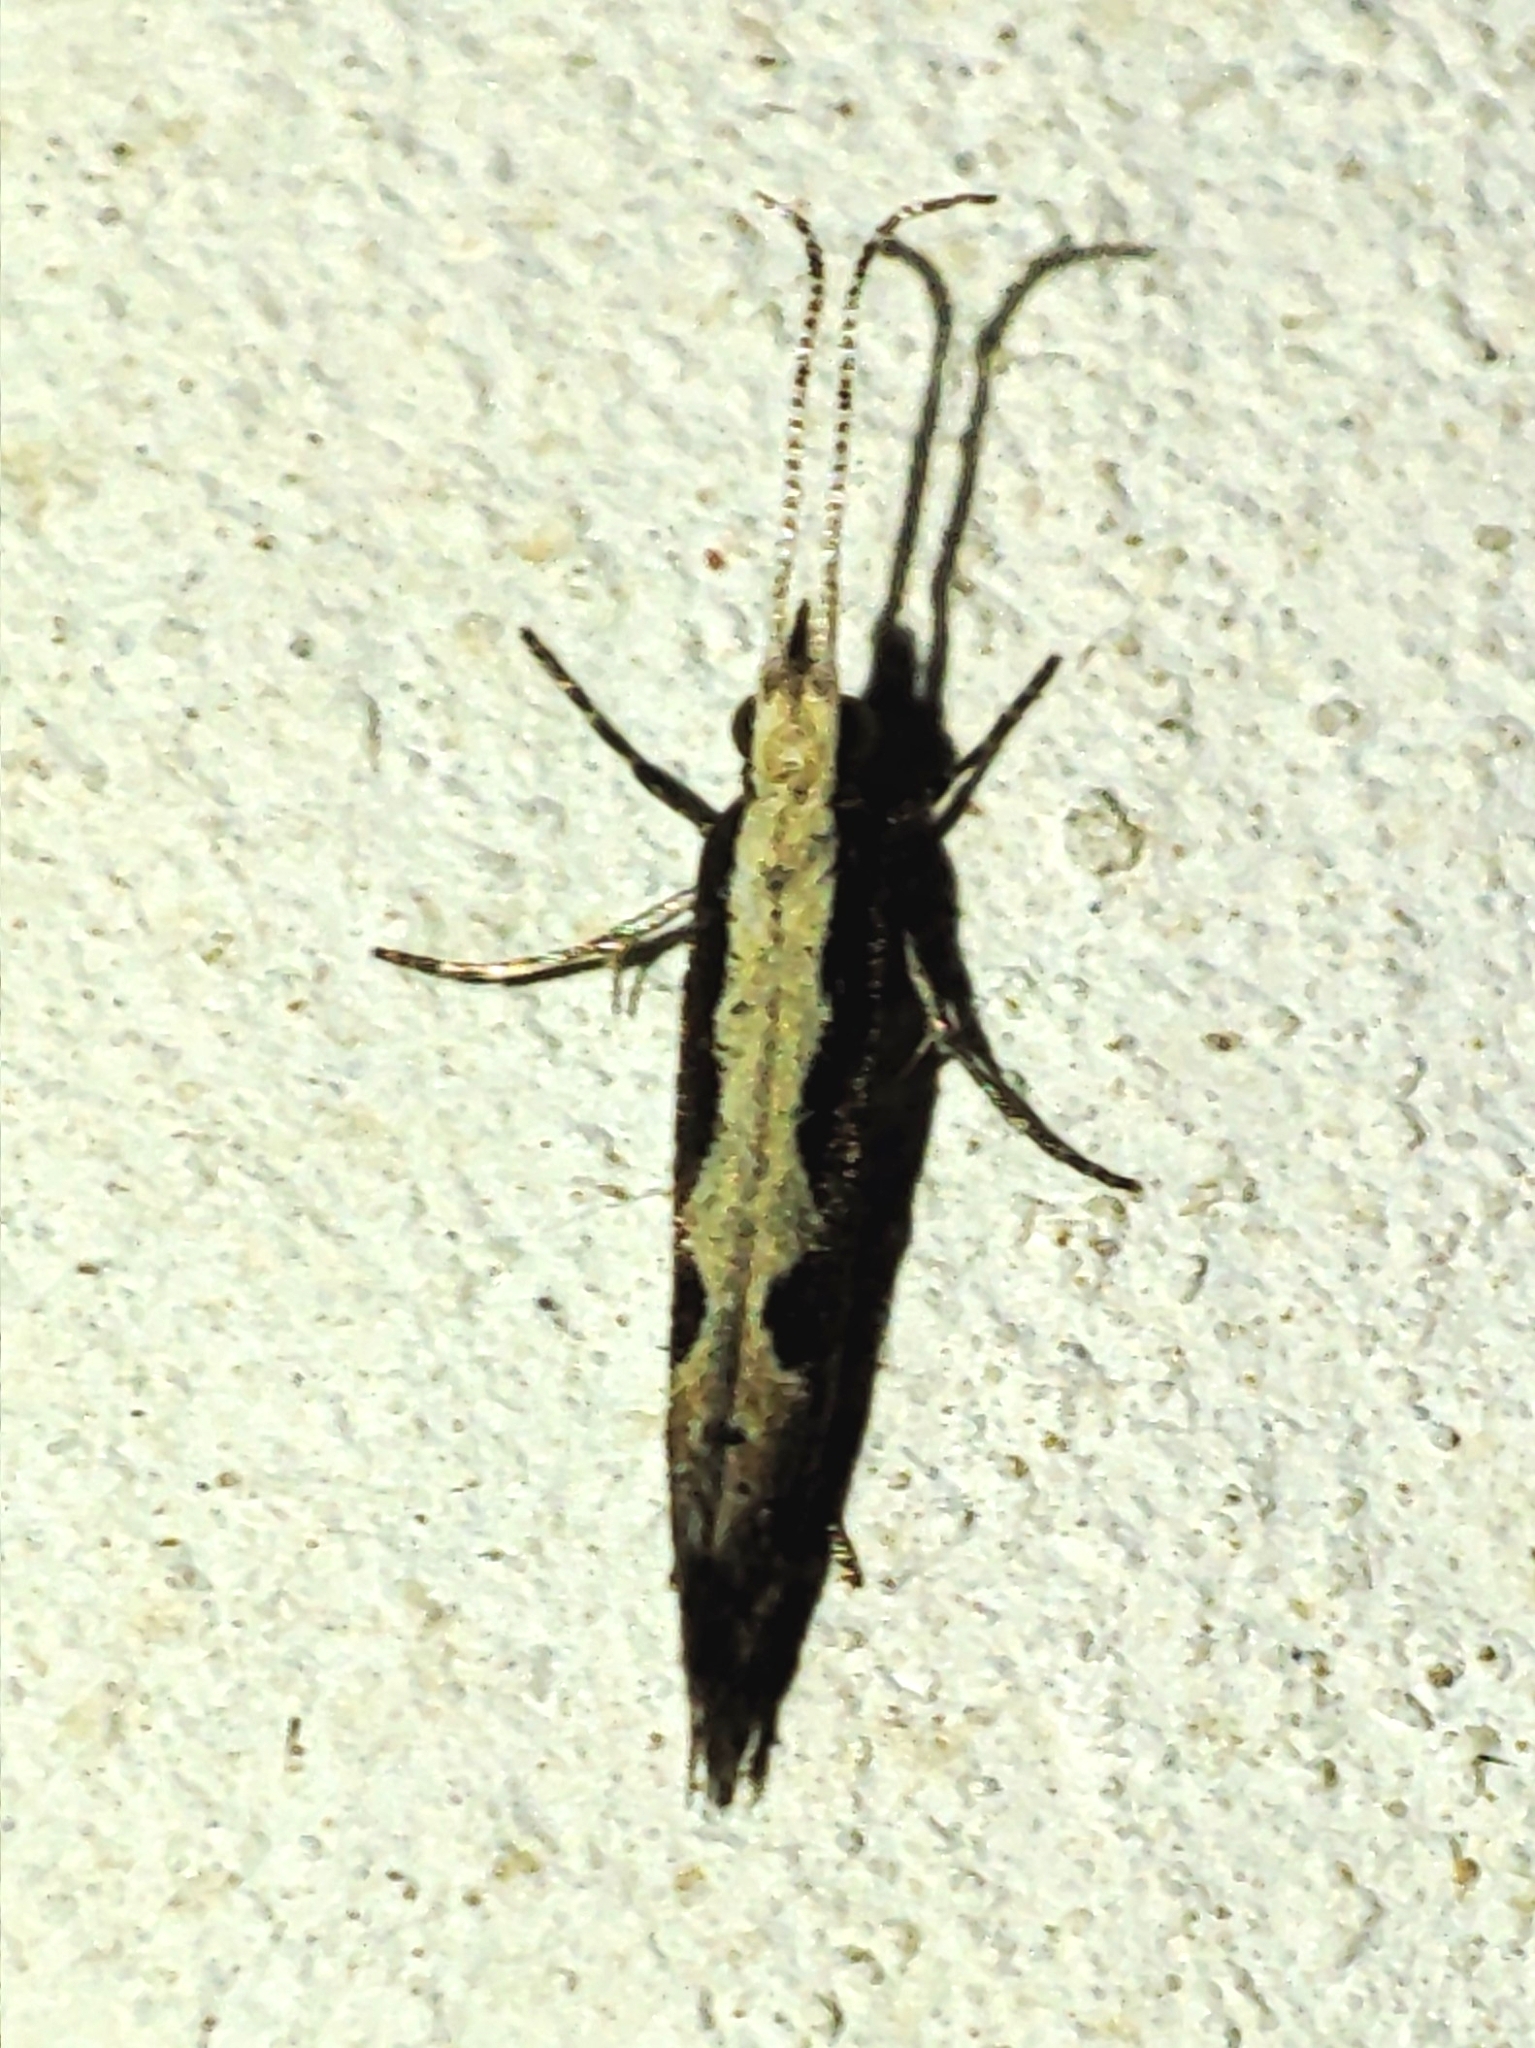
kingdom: Animalia
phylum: Arthropoda
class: Insecta
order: Lepidoptera
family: Plutellidae
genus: Plutella
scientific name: Plutella xylostella
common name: Diamond-back moth
